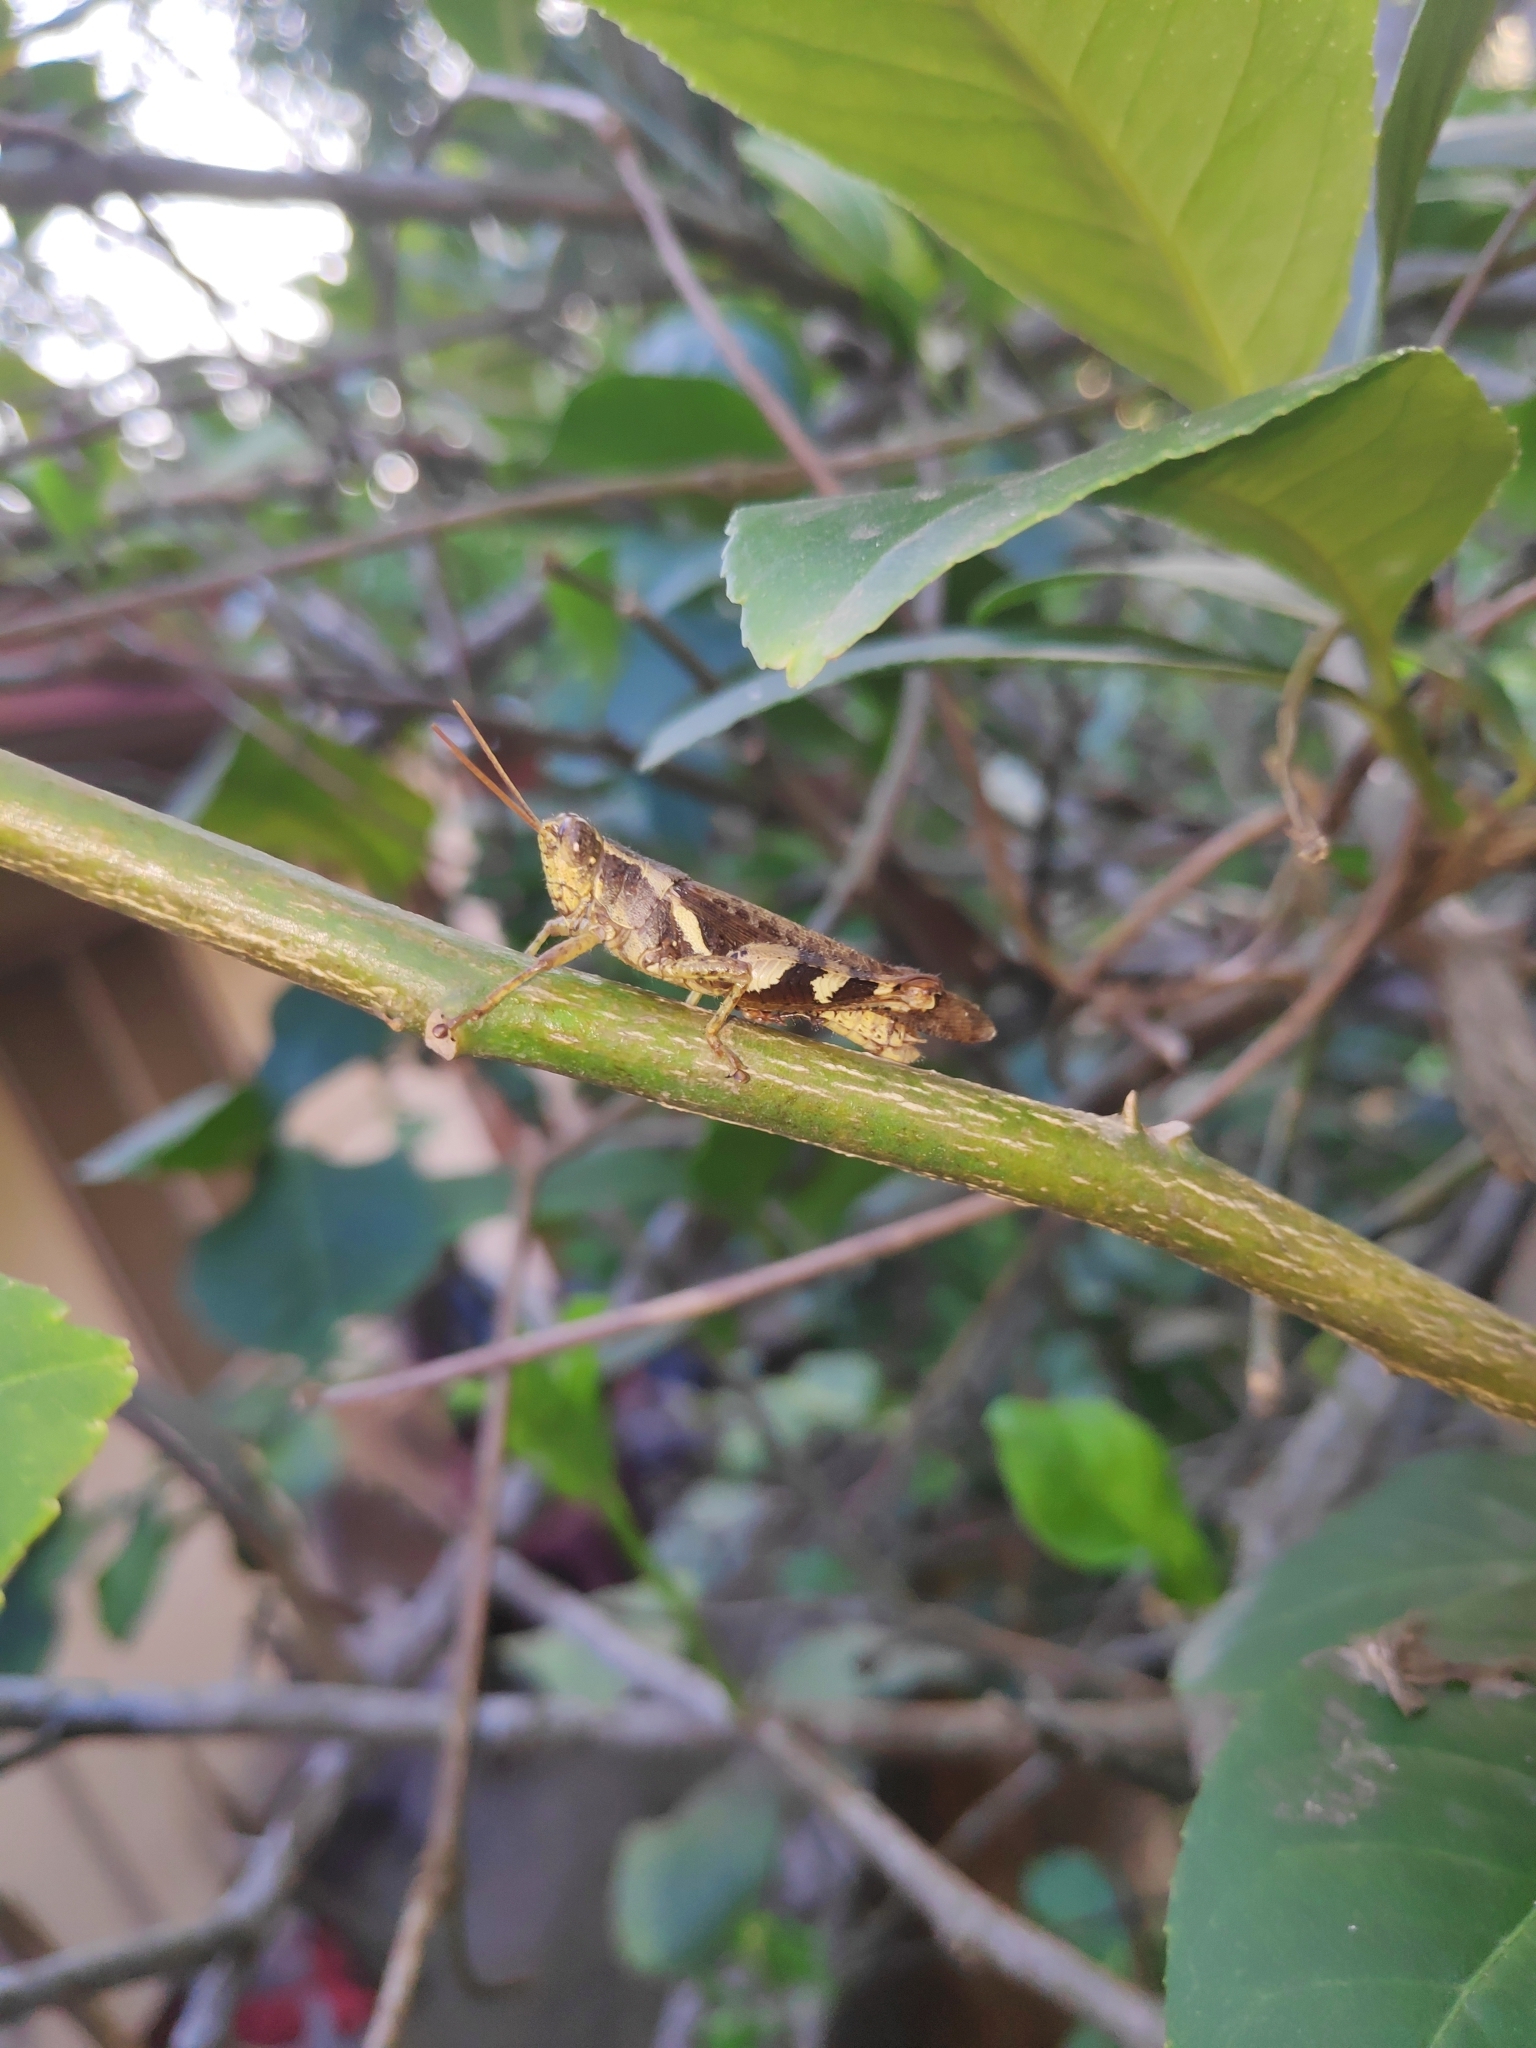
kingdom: Animalia
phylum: Arthropoda
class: Insecta
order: Orthoptera
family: Acrididae
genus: Xenocatantops
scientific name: Xenocatantops humile
